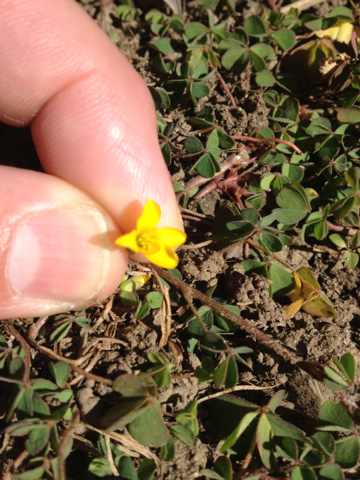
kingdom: Plantae
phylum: Tracheophyta
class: Magnoliopsida
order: Oxalidales
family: Oxalidaceae
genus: Oxalis
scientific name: Oxalis corniculata
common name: Procumbent yellow-sorrel
